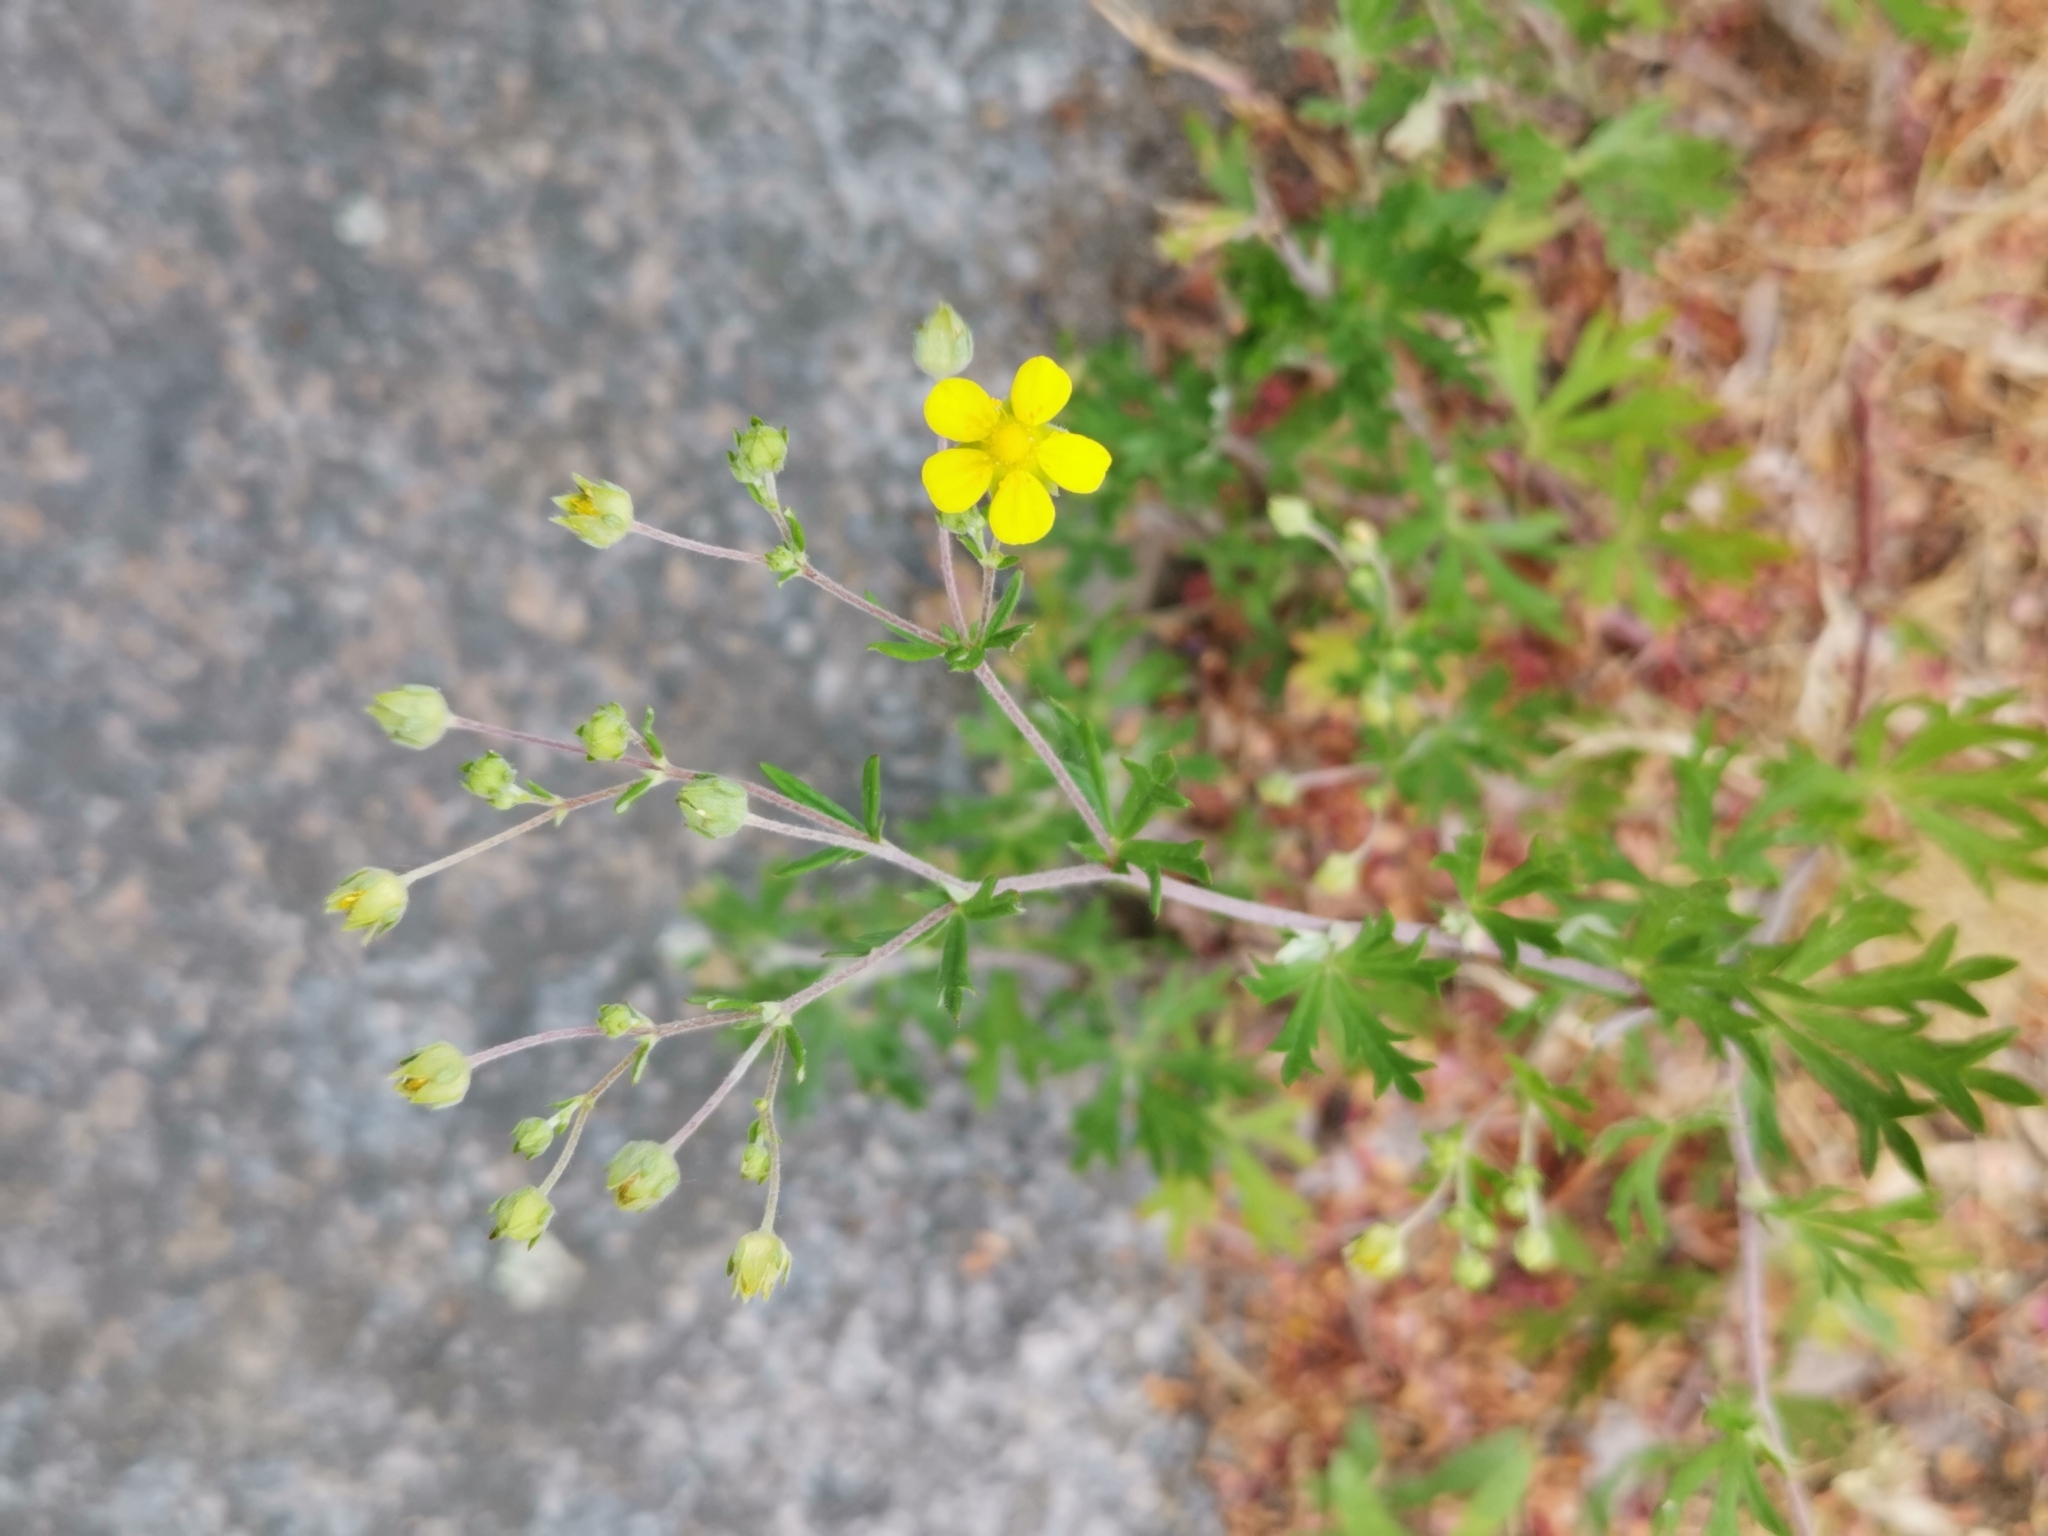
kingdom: Plantae
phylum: Tracheophyta
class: Magnoliopsida
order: Rosales
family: Rosaceae
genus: Potentilla
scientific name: Potentilla argentea
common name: Hoary cinquefoil
